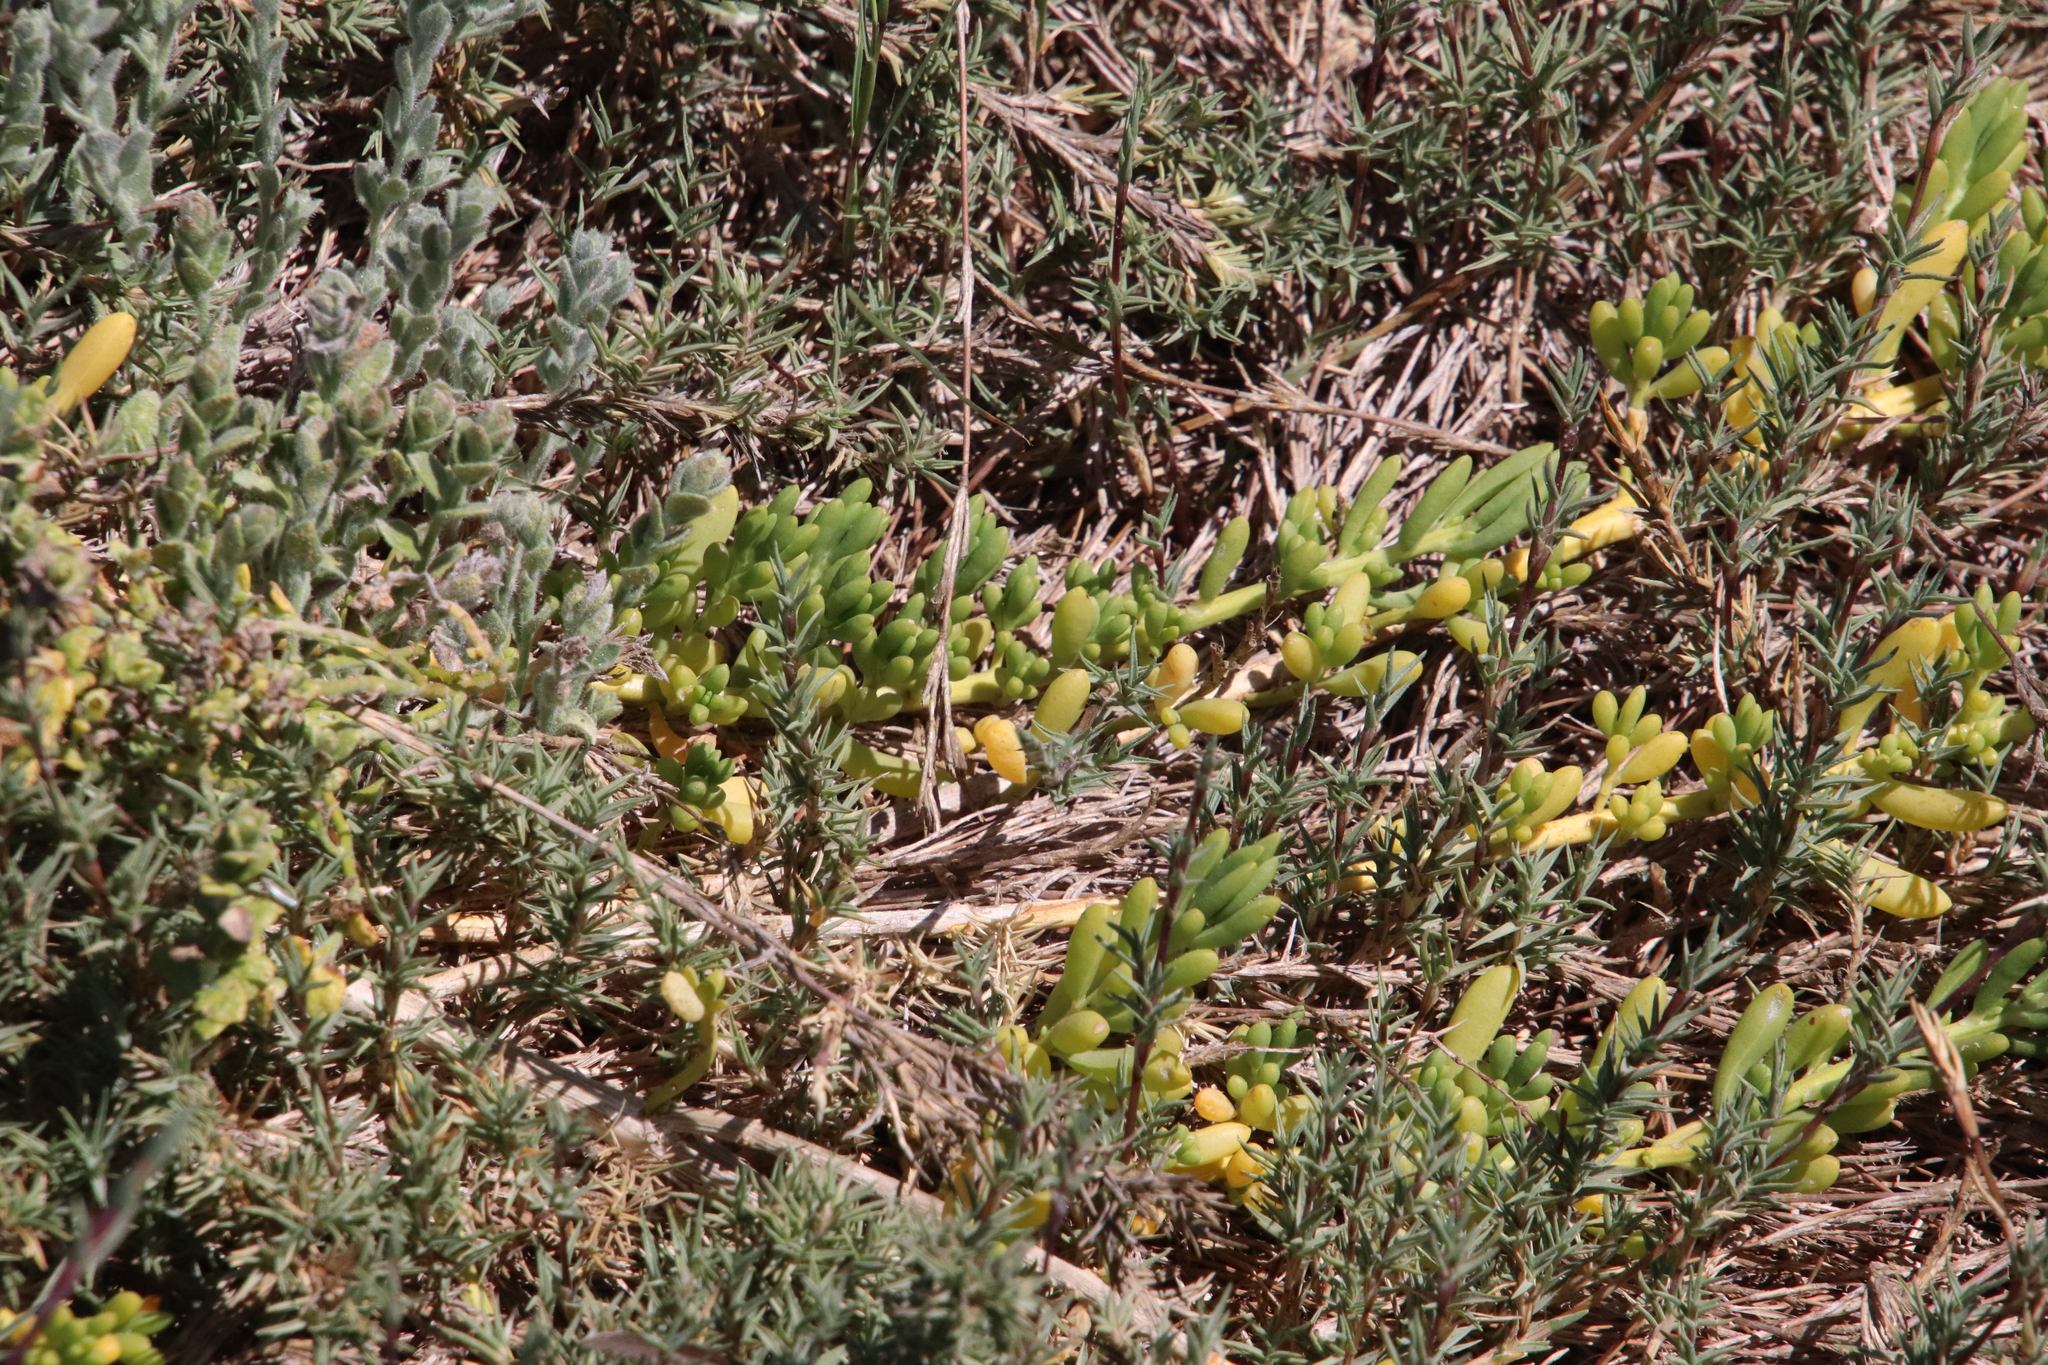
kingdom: Plantae
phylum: Tracheophyta
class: Magnoliopsida
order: Brassicales
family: Bataceae
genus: Batis
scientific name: Batis maritima
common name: Turtleweed
